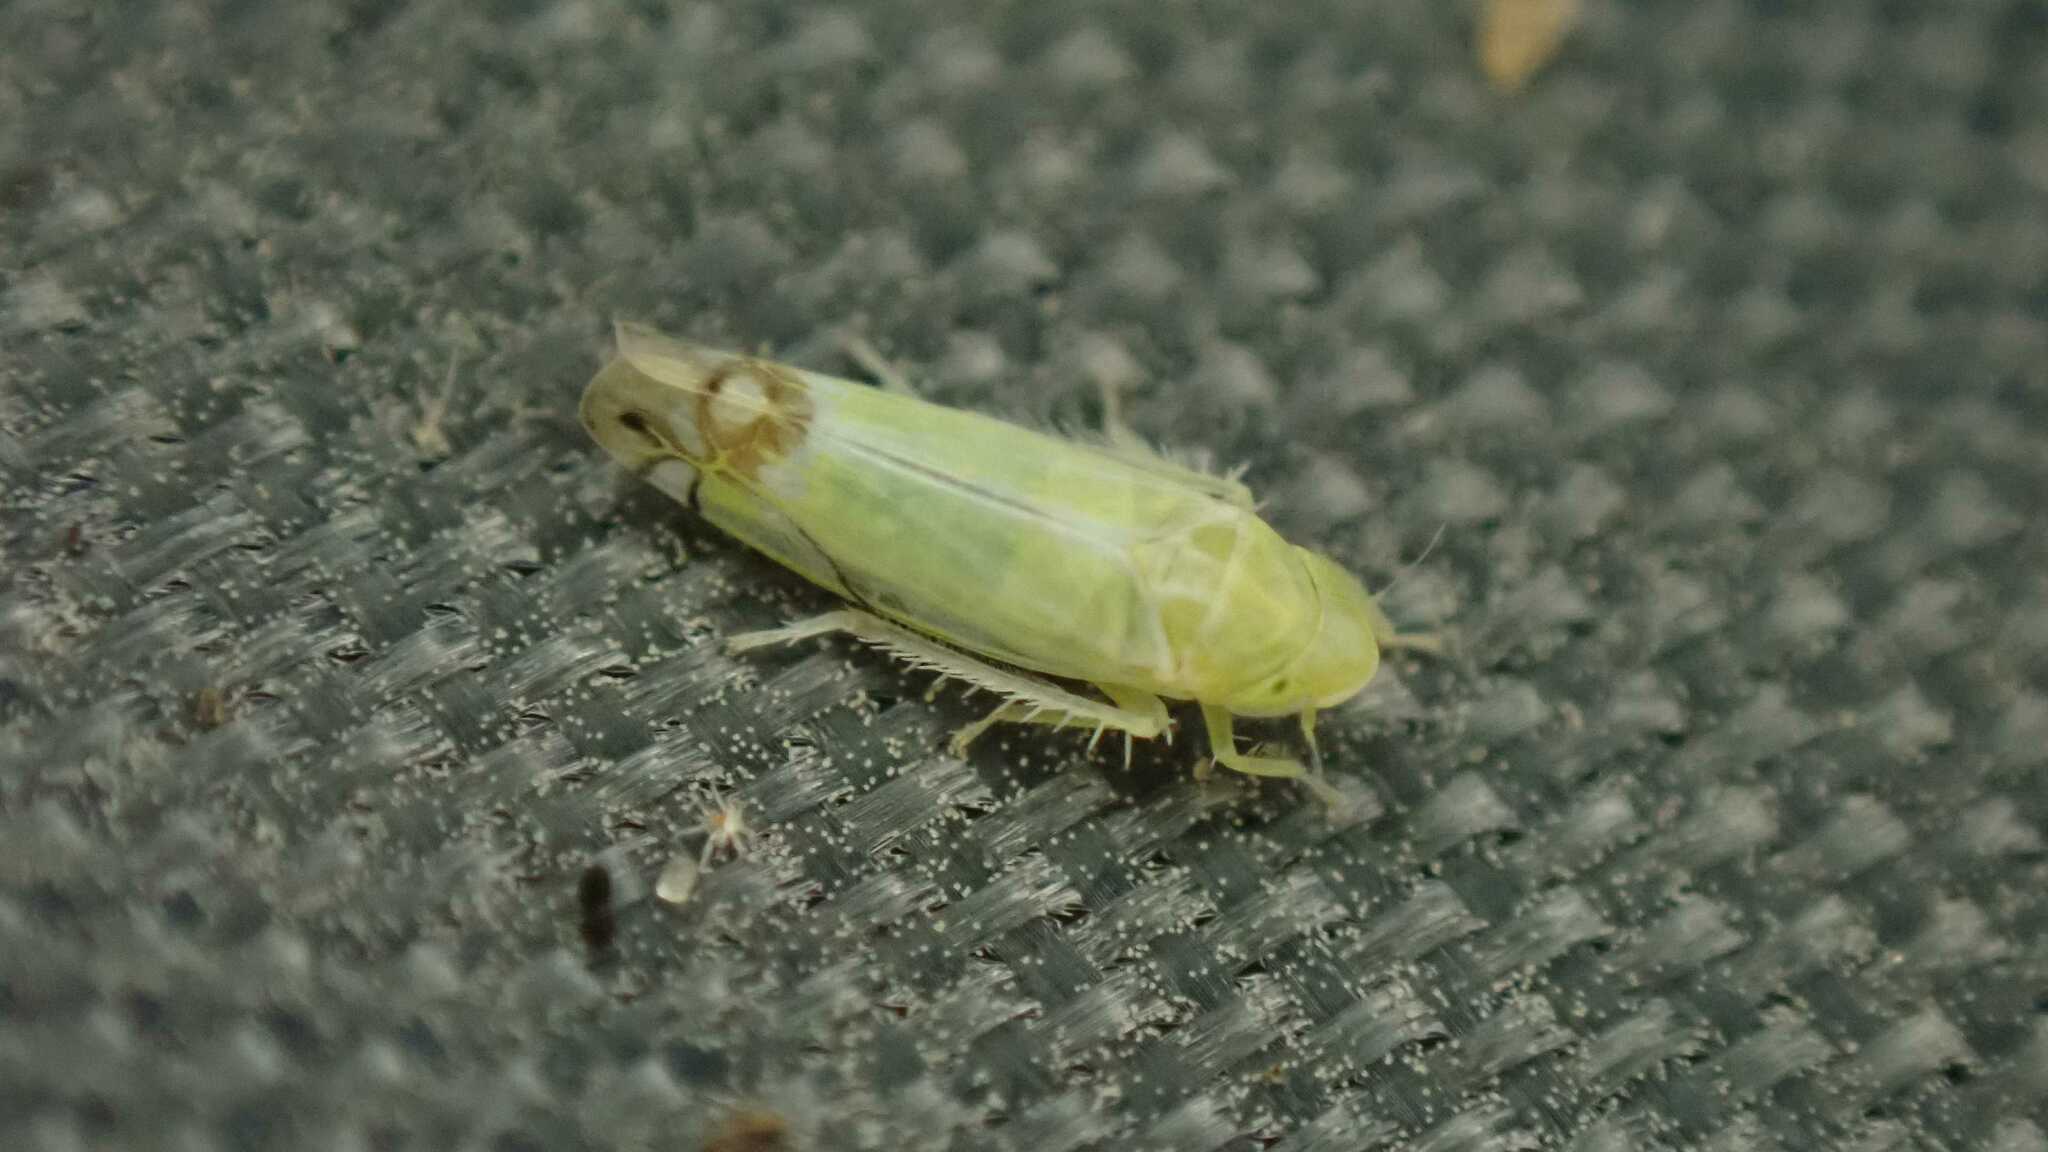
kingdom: Animalia
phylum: Arthropoda
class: Insecta
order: Hemiptera
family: Cicadellidae
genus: Zyginella
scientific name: Zyginella pulchra
